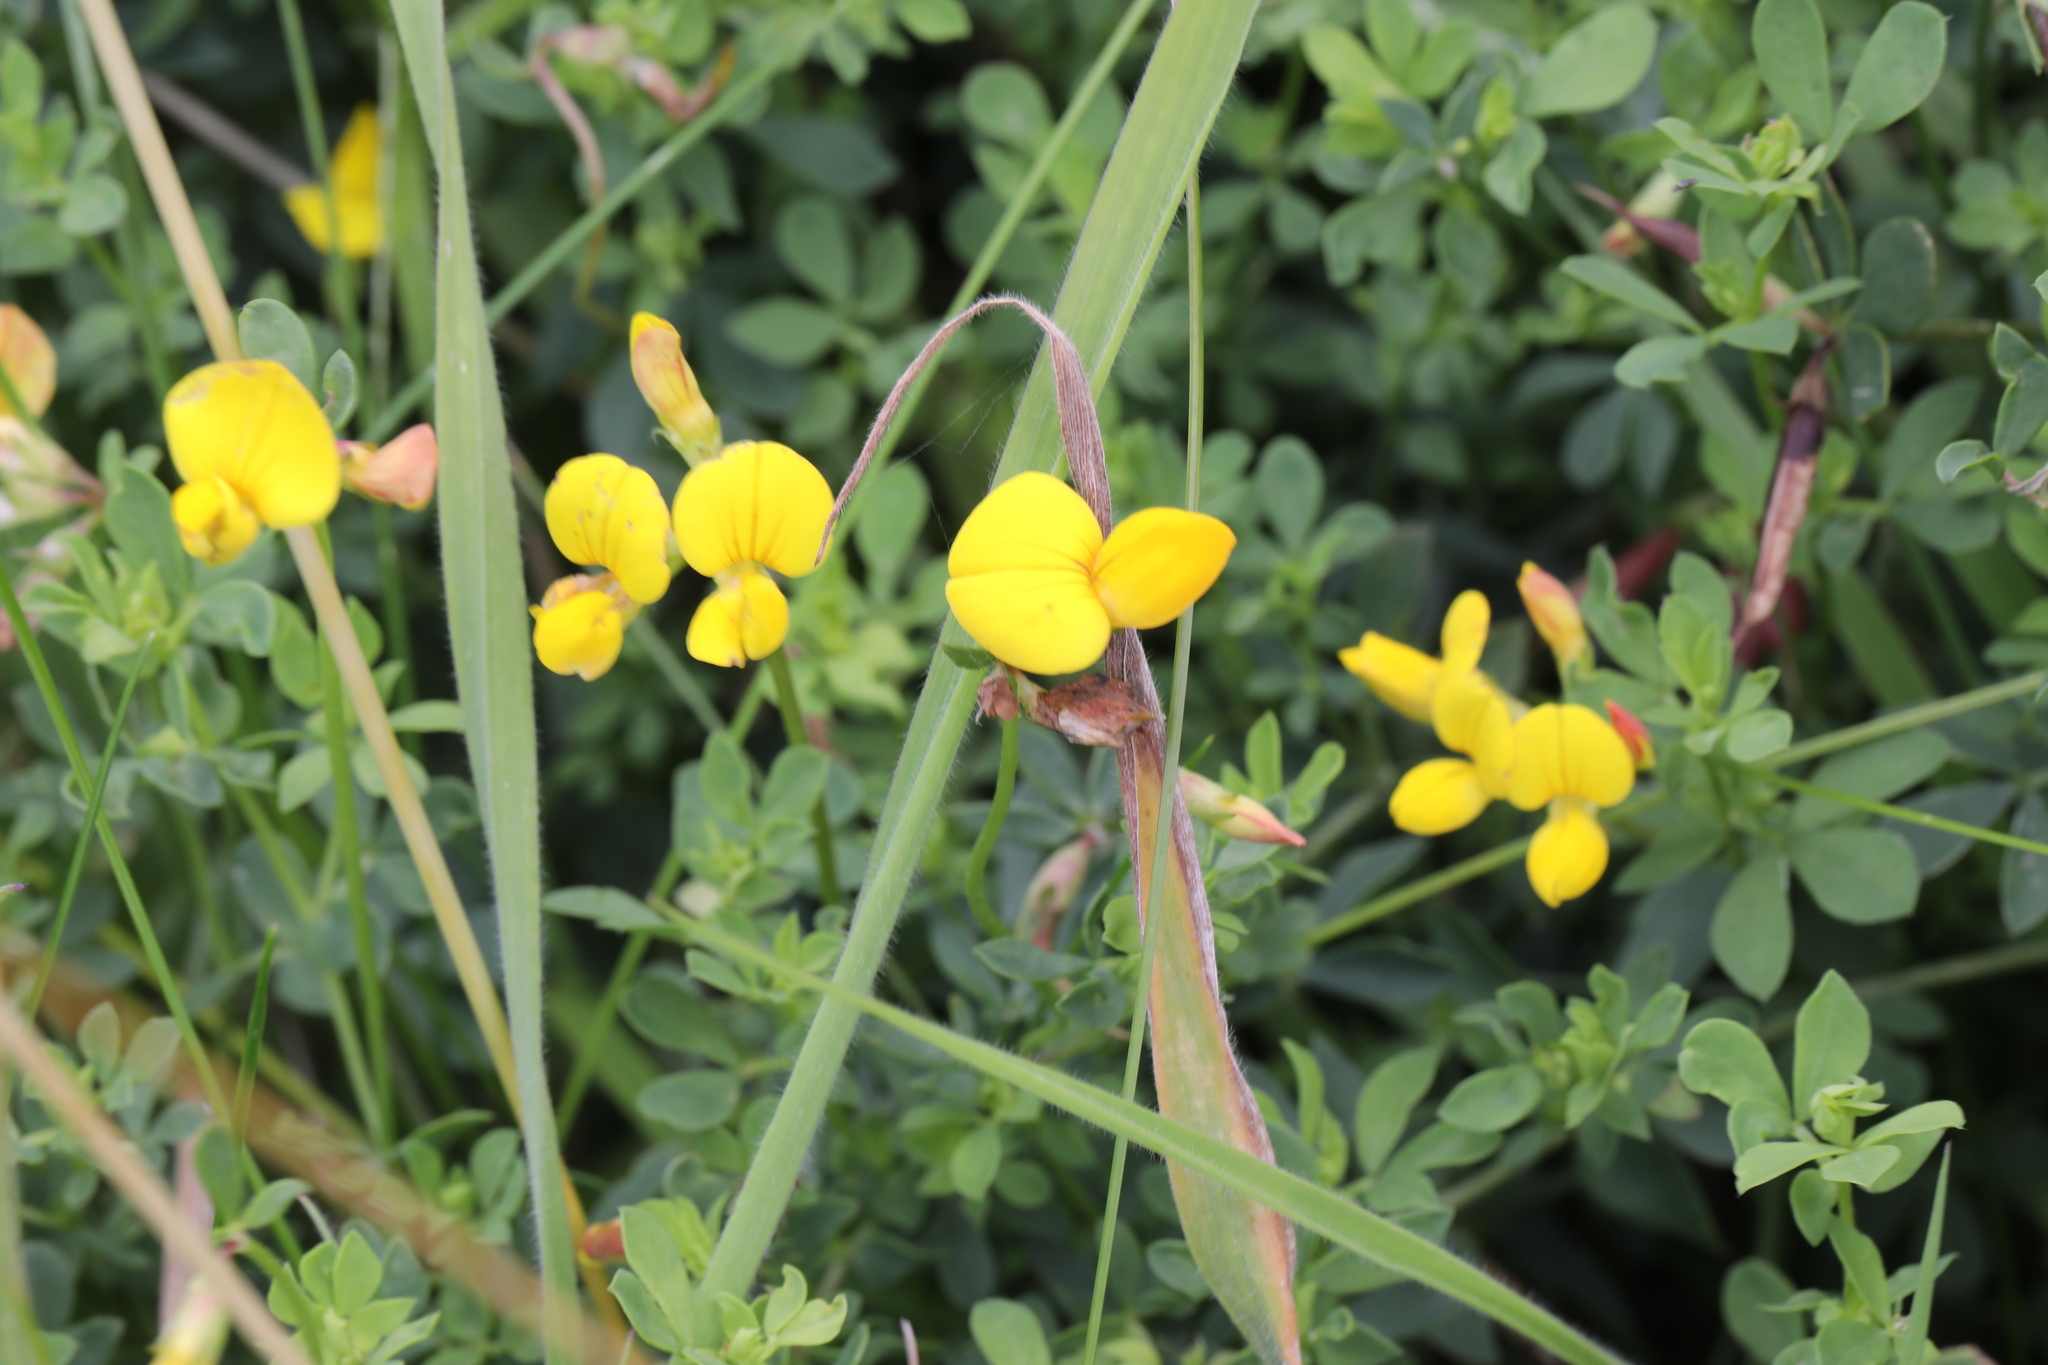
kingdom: Plantae
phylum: Tracheophyta
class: Magnoliopsida
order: Fabales
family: Fabaceae
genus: Lotus
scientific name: Lotus corniculatus
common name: Common bird's-foot-trefoil
